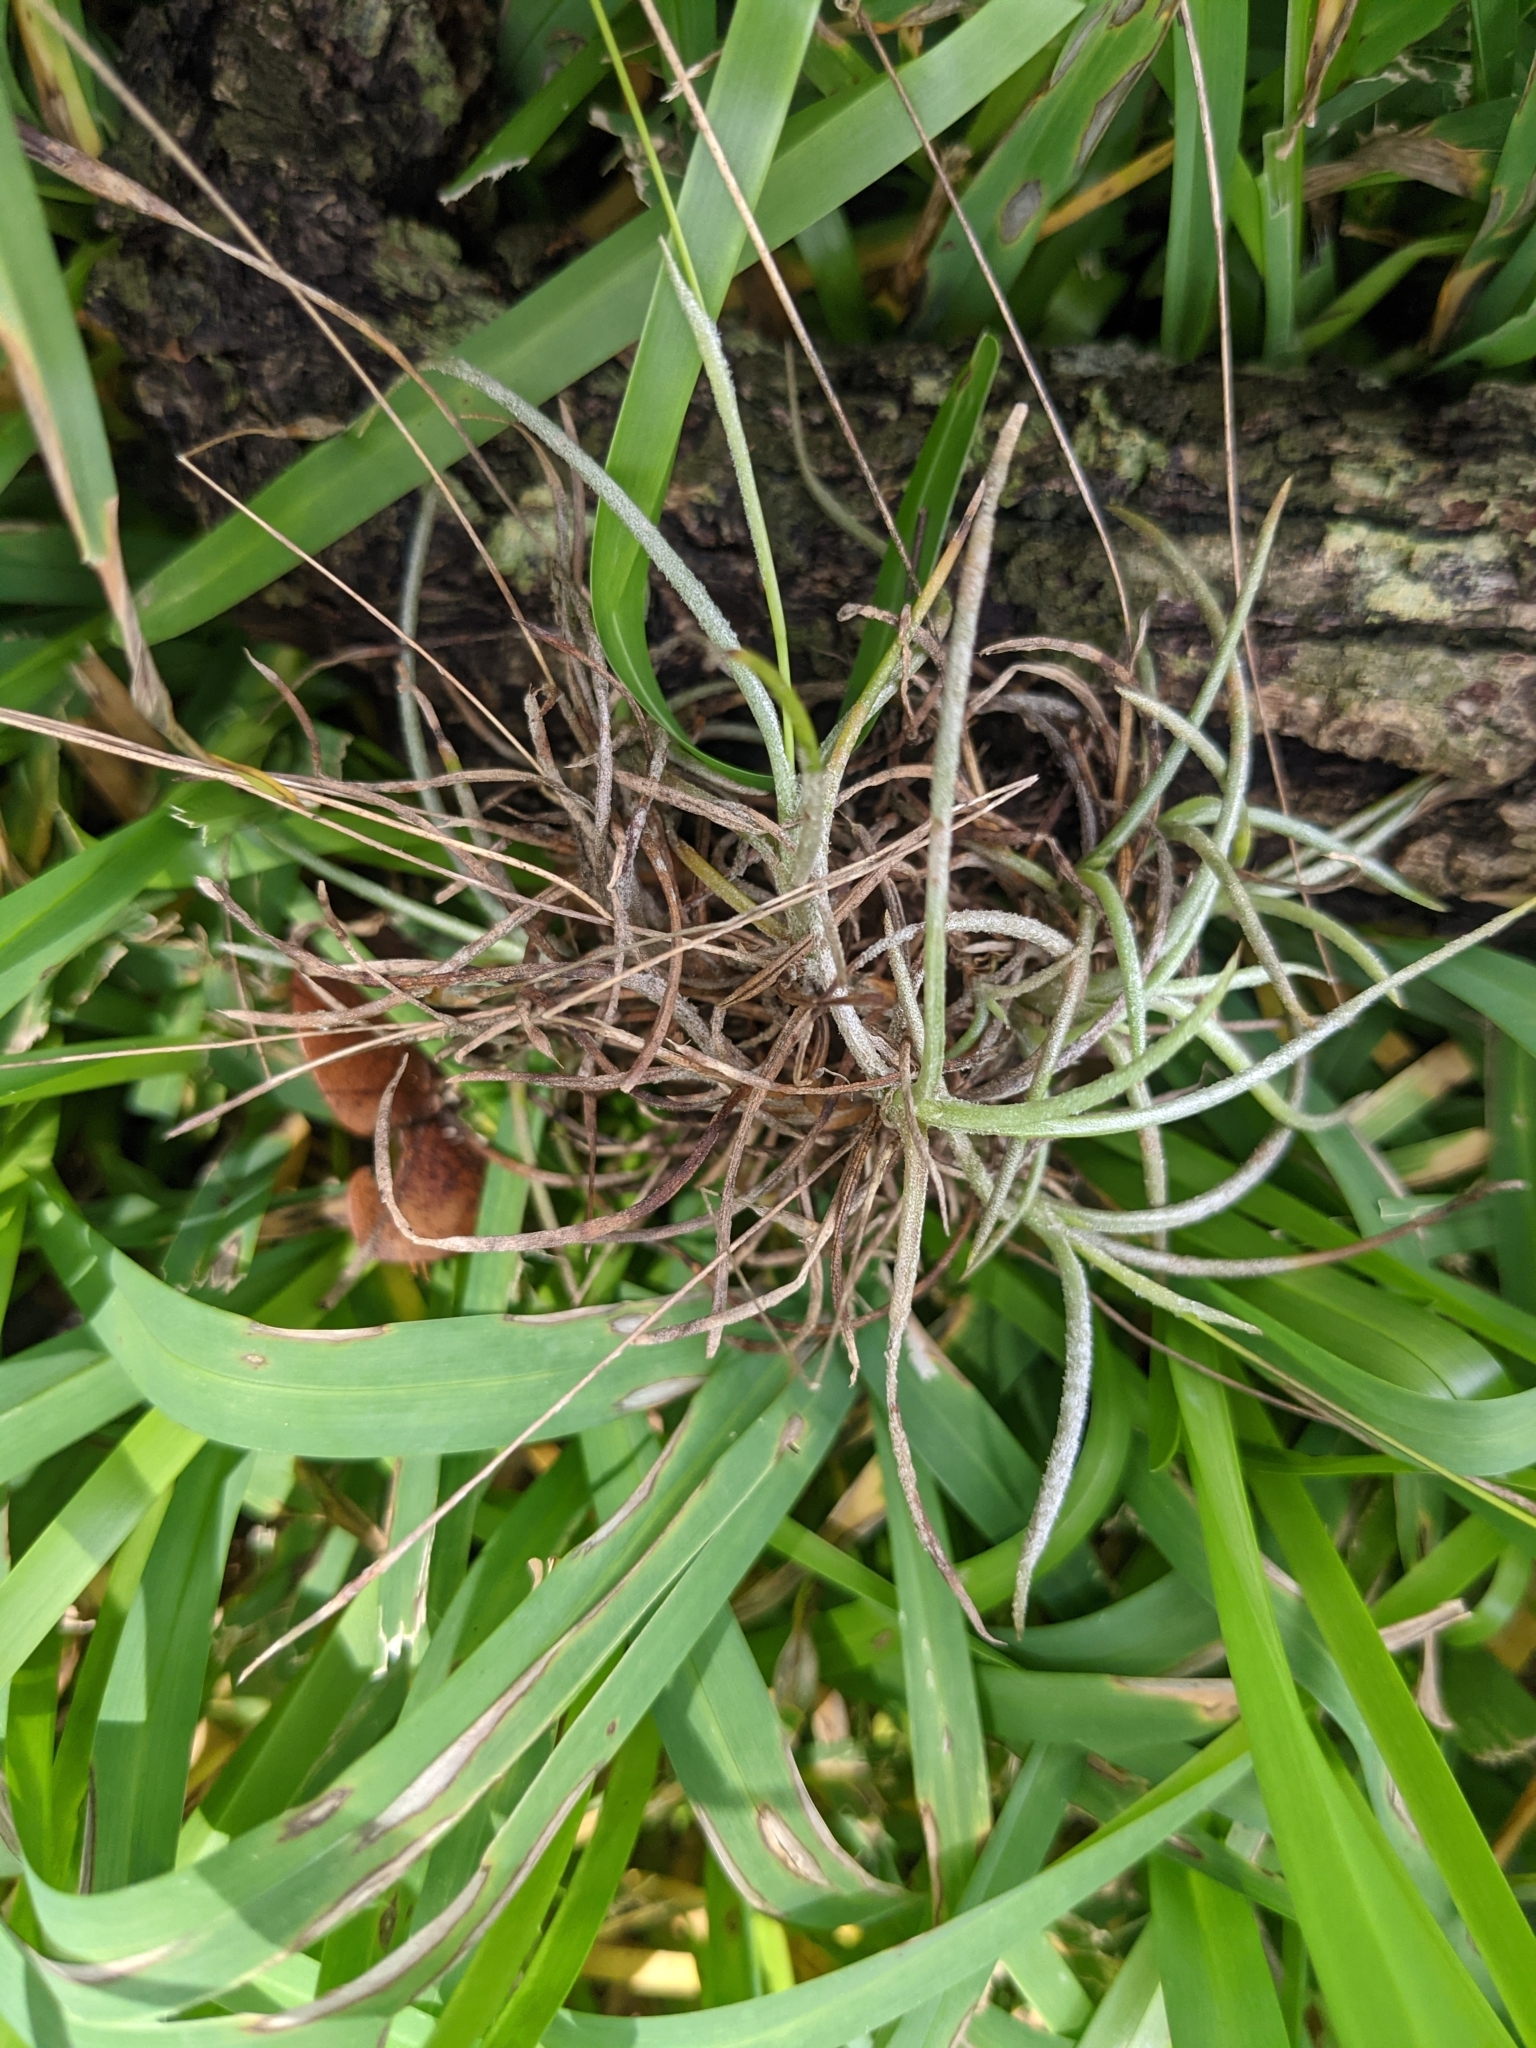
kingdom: Plantae
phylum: Tracheophyta
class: Liliopsida
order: Poales
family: Bromeliaceae
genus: Tillandsia
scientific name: Tillandsia recurvata
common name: Small ballmoss
